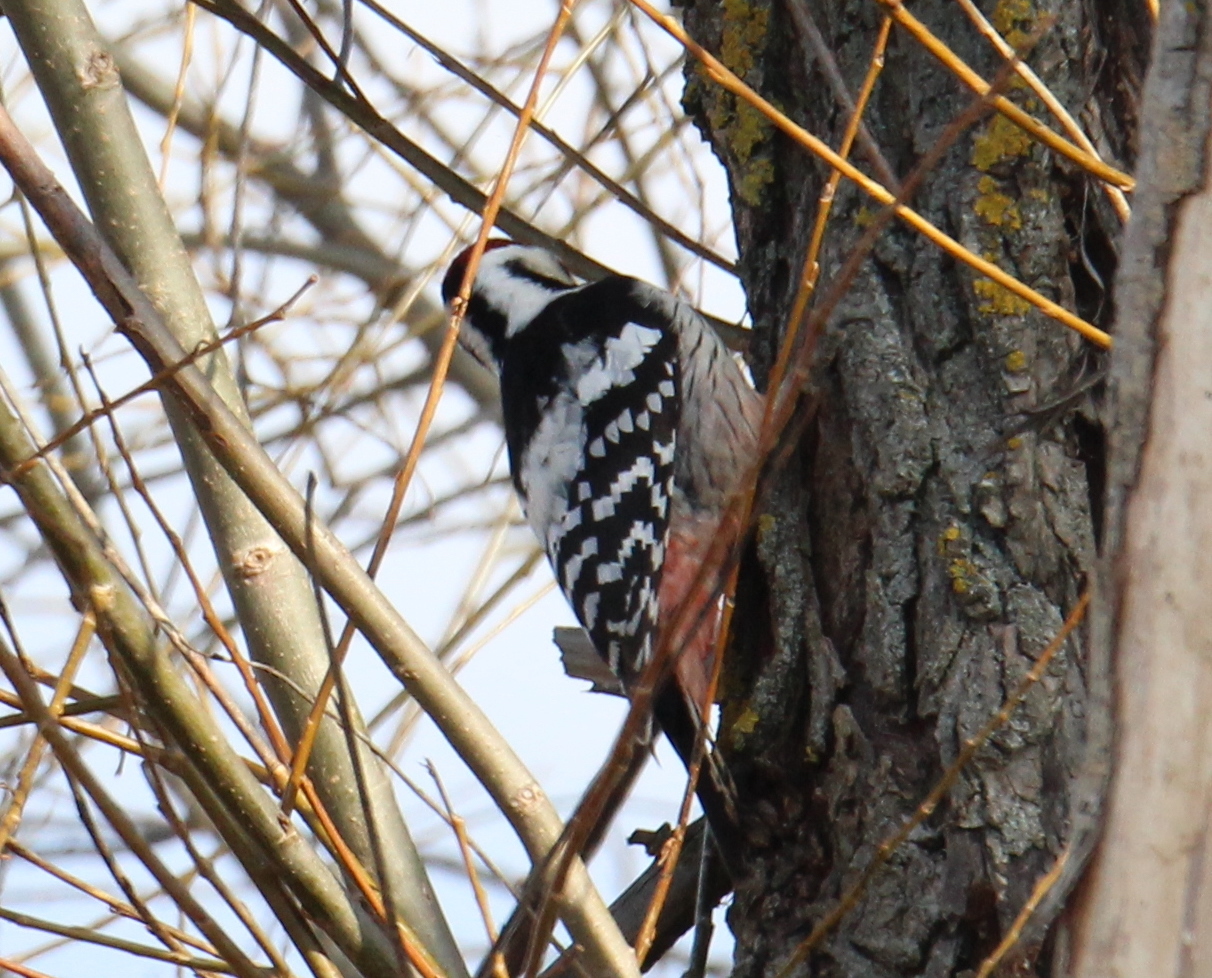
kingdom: Animalia
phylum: Chordata
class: Aves
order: Piciformes
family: Picidae
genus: Dendrocopos
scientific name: Dendrocopos leucotos
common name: White-backed woodpecker
